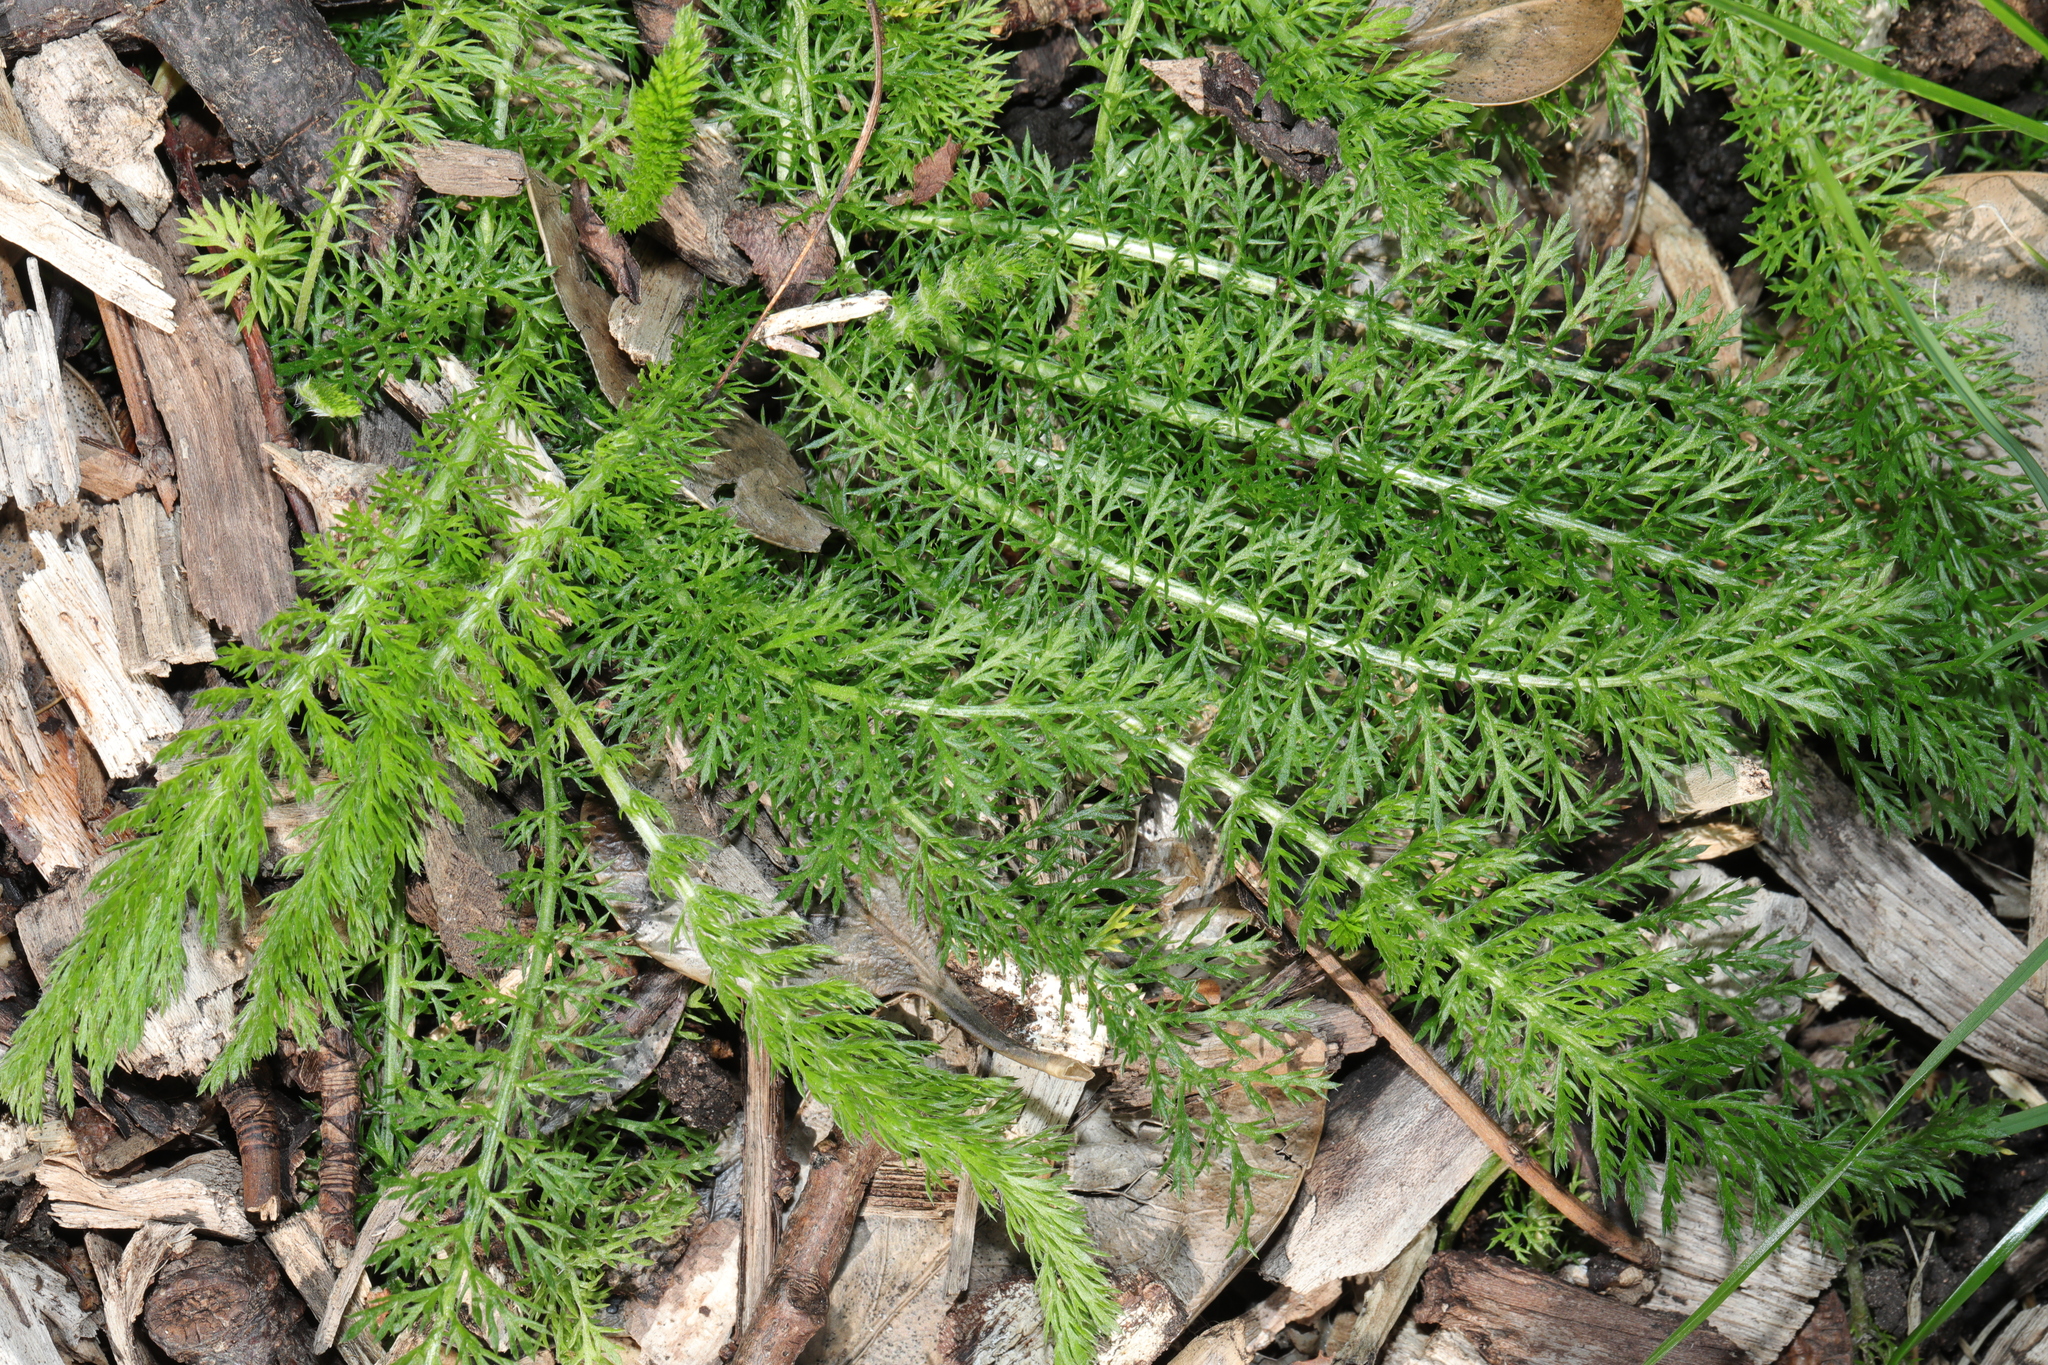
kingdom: Plantae
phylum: Tracheophyta
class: Magnoliopsida
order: Asterales
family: Asteraceae
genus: Achillea
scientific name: Achillea millefolium
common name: Yarrow
